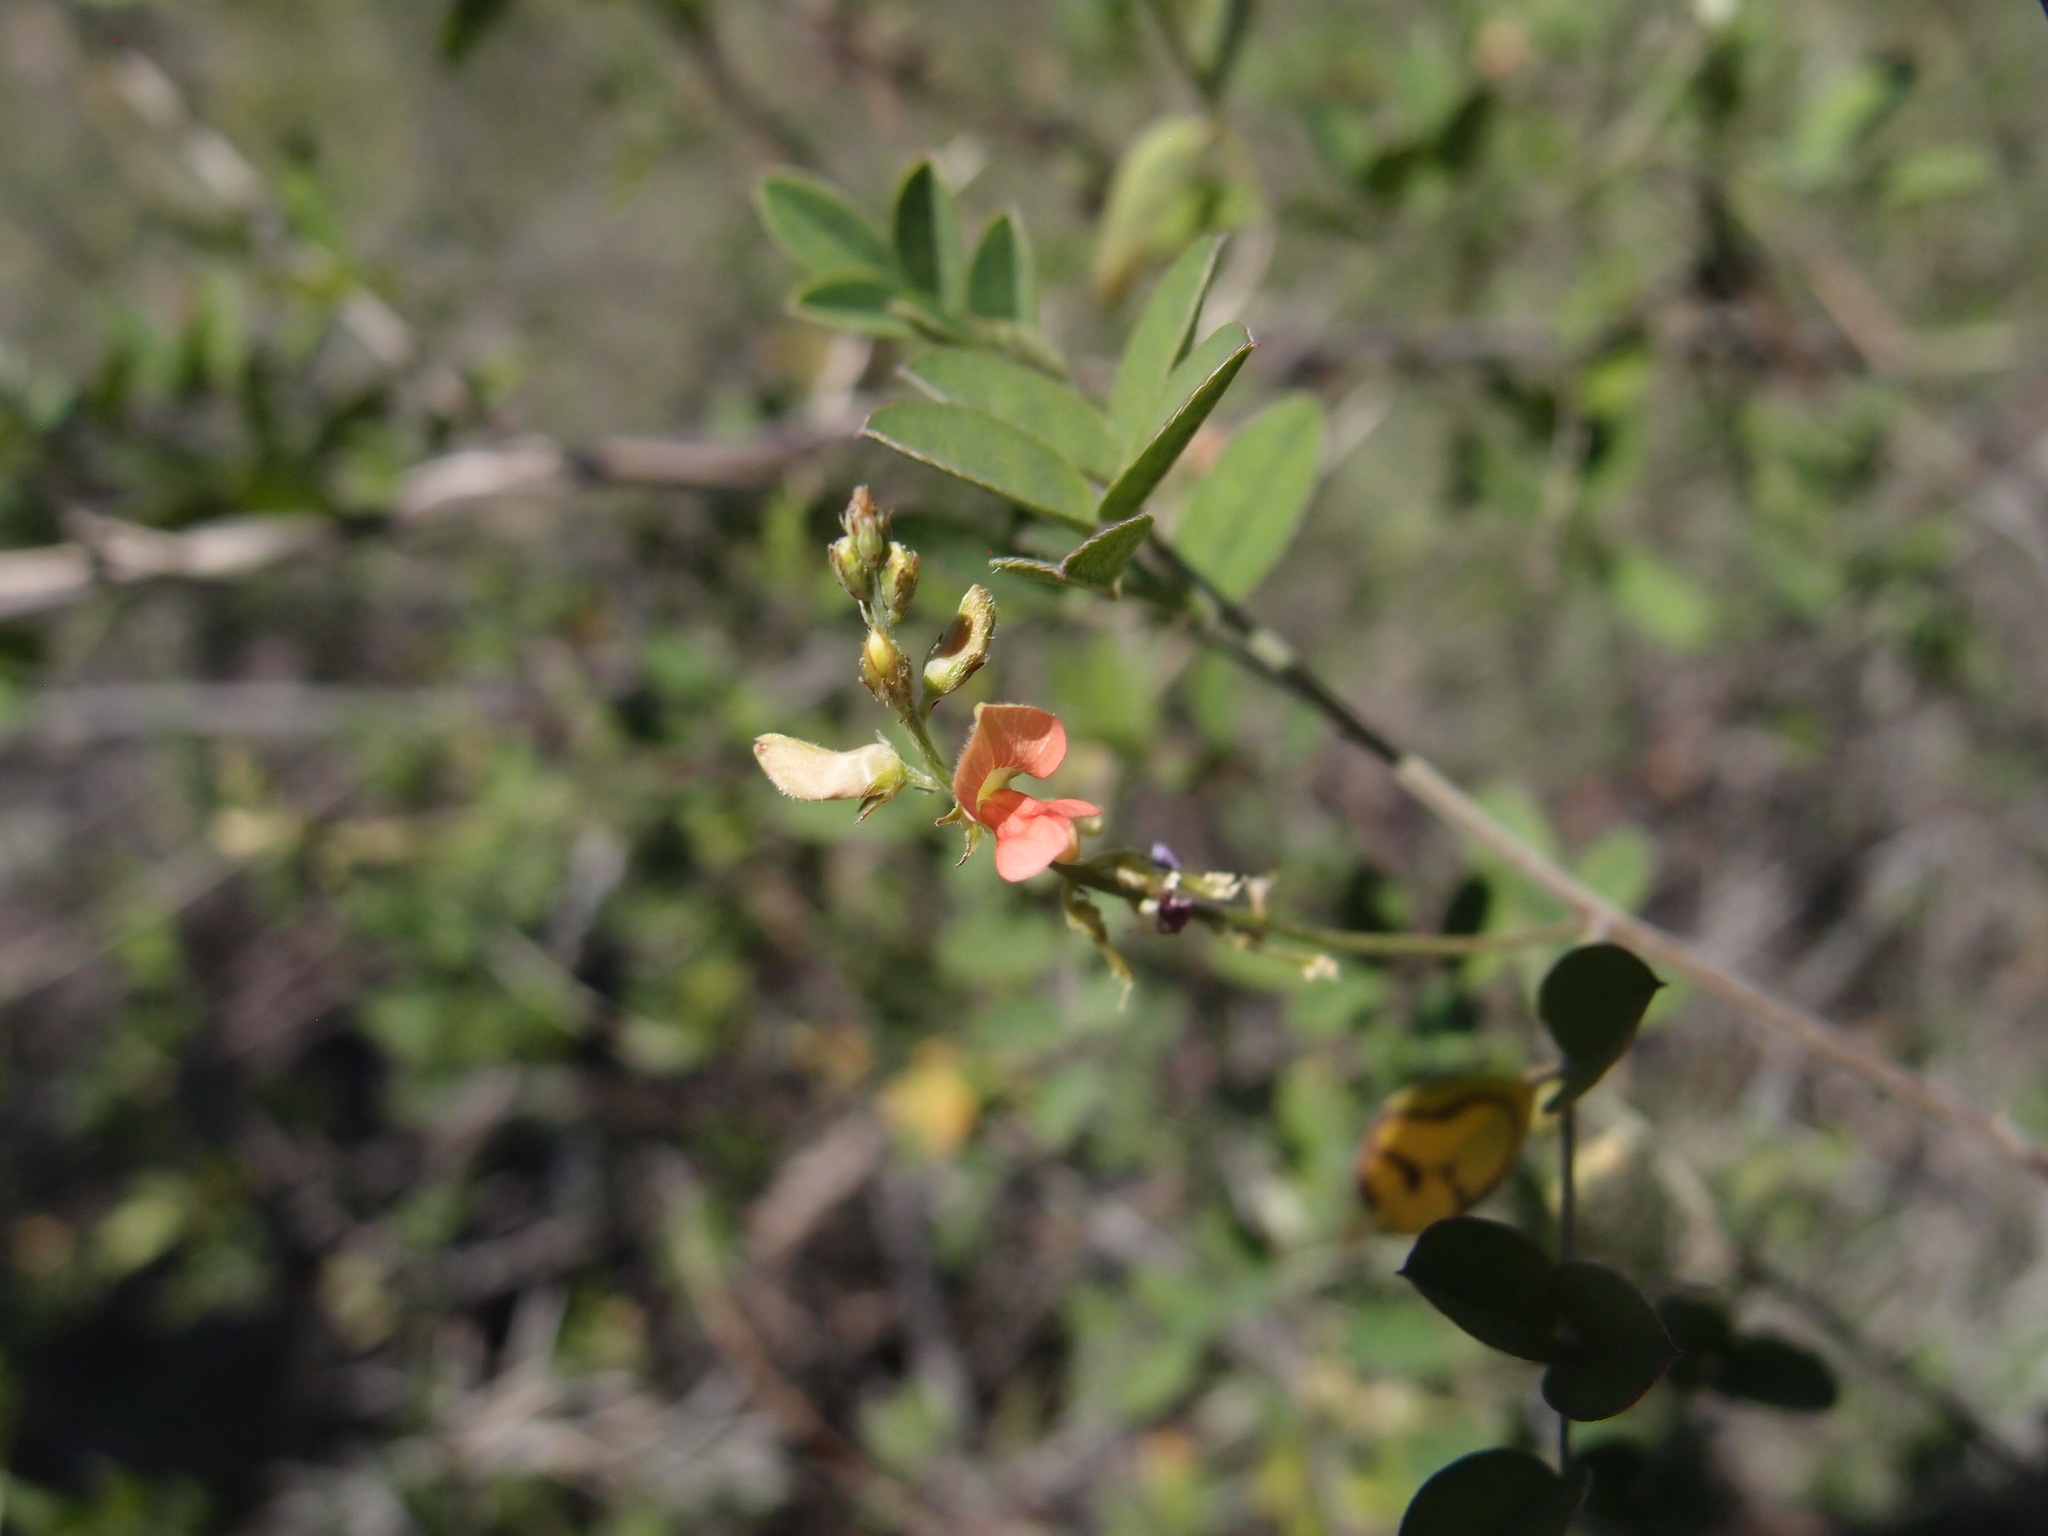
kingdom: Plantae
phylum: Tracheophyta
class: Magnoliopsida
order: Fabales
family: Fabaceae
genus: Indigofera
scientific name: Indigofera subulata
